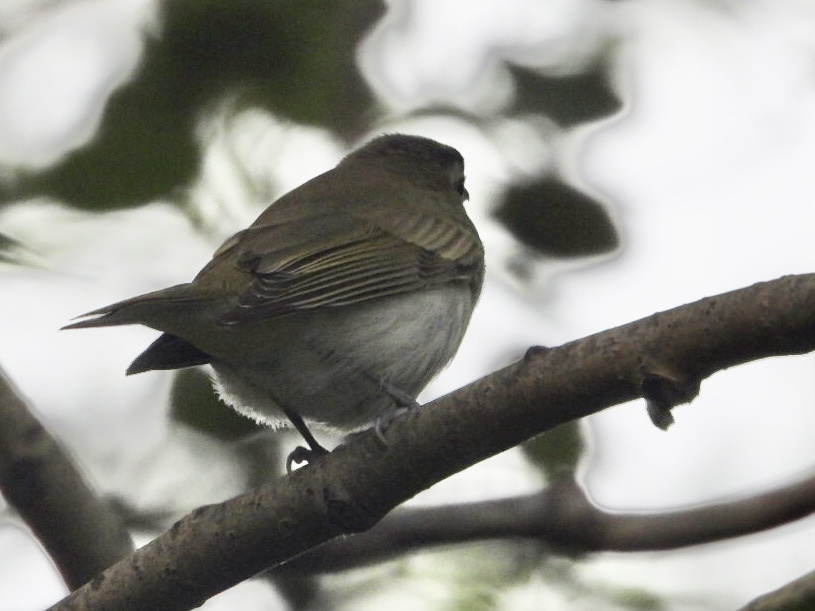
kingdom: Animalia
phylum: Chordata
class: Aves
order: Passeriformes
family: Passerellidae
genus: Junco
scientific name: Junco hyemalis
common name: Dark-eyed junco
